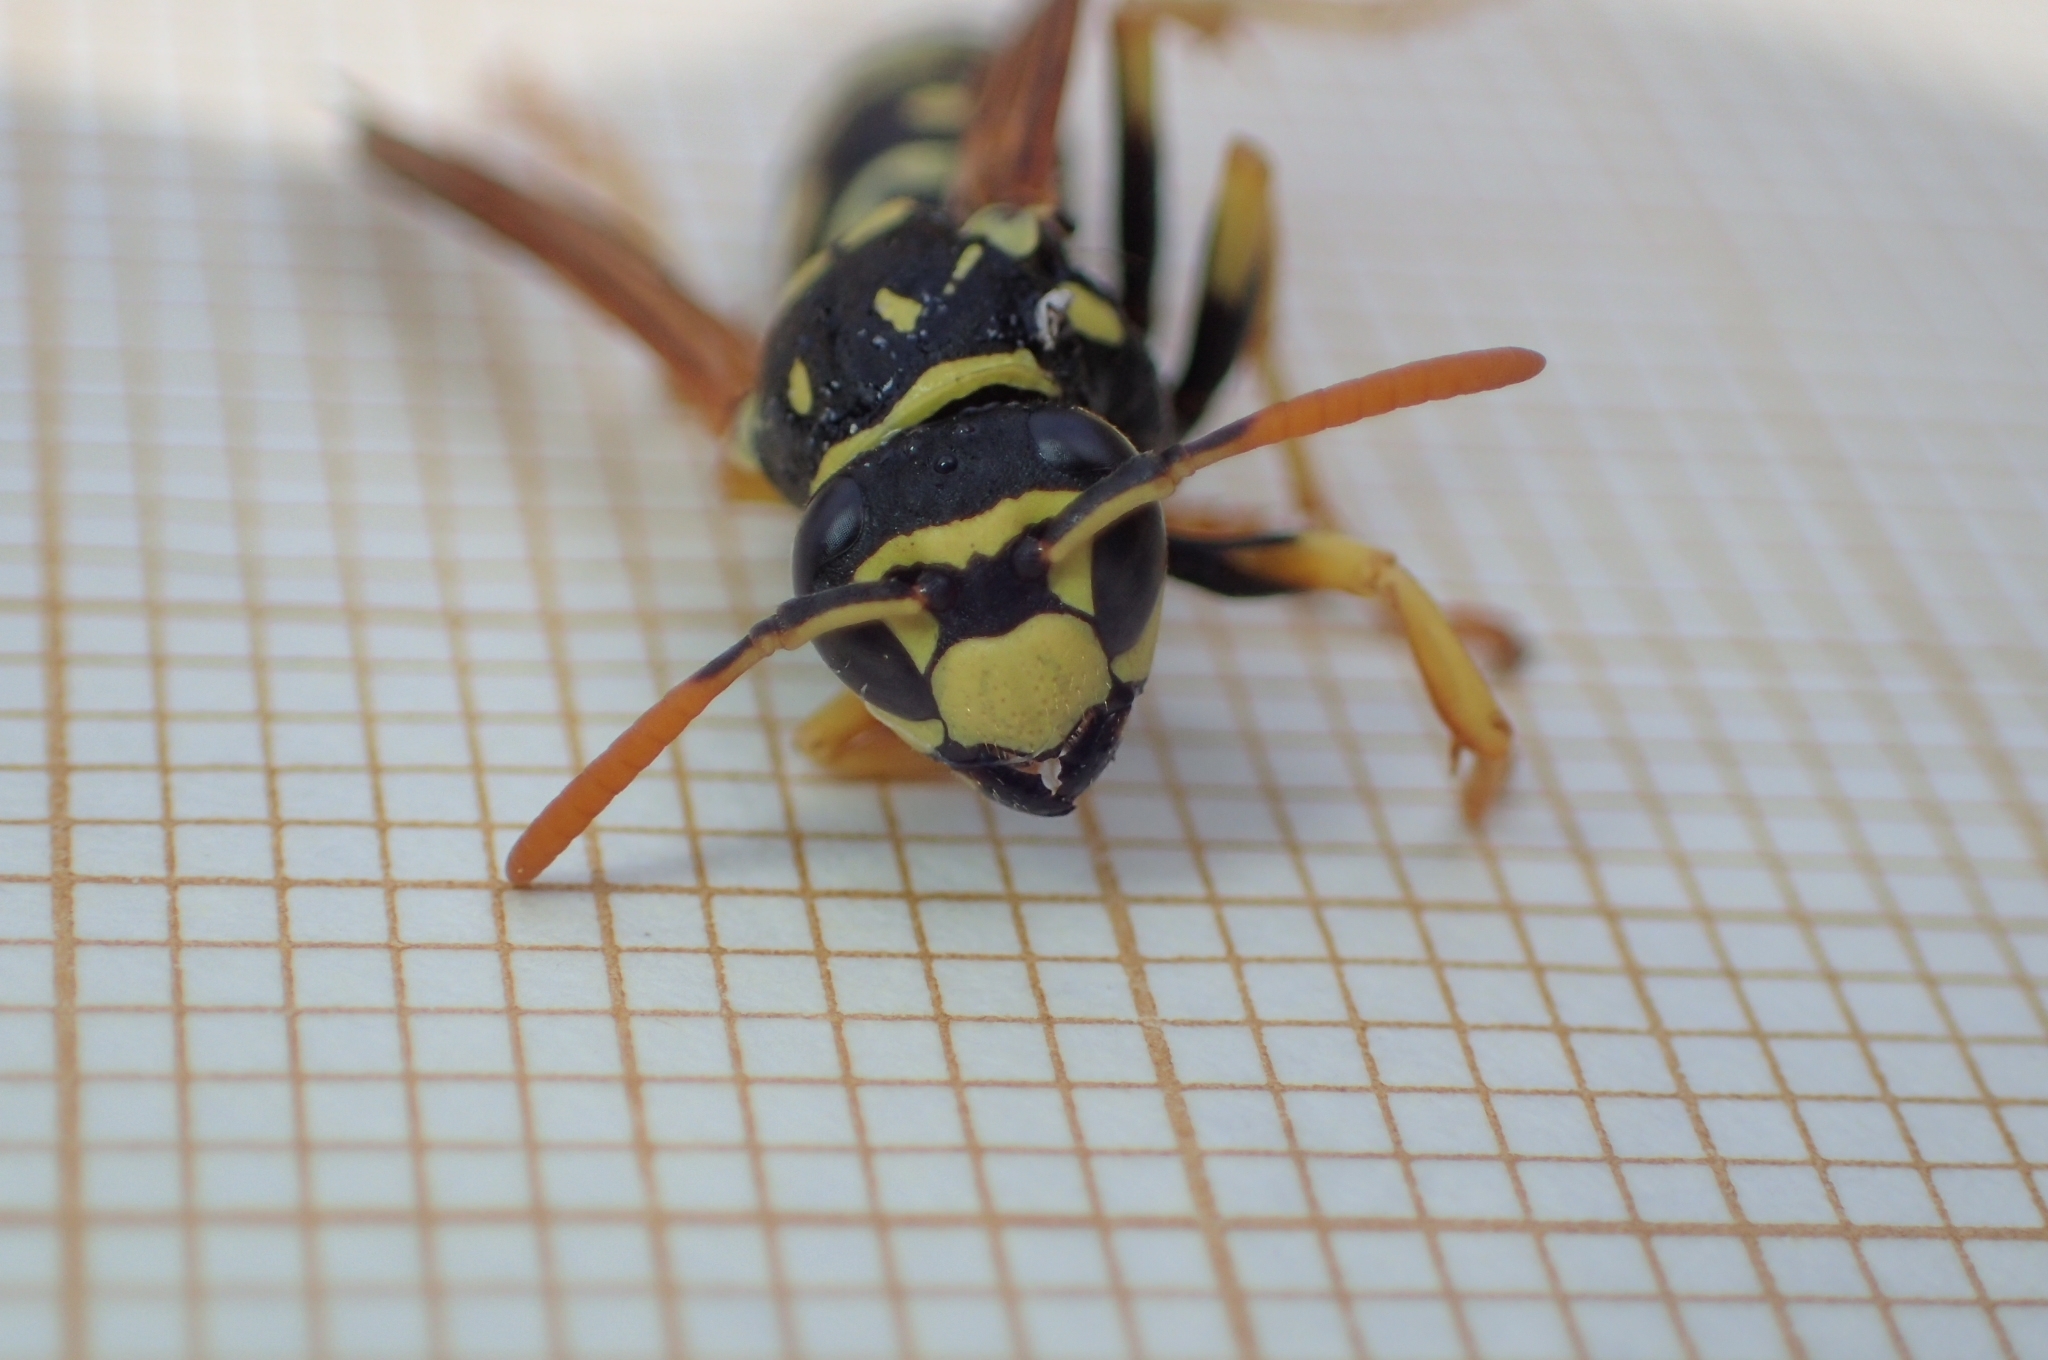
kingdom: Animalia
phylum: Arthropoda
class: Insecta
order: Hymenoptera
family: Eumenidae
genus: Polistes
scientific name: Polistes dominula
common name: Paper wasp
